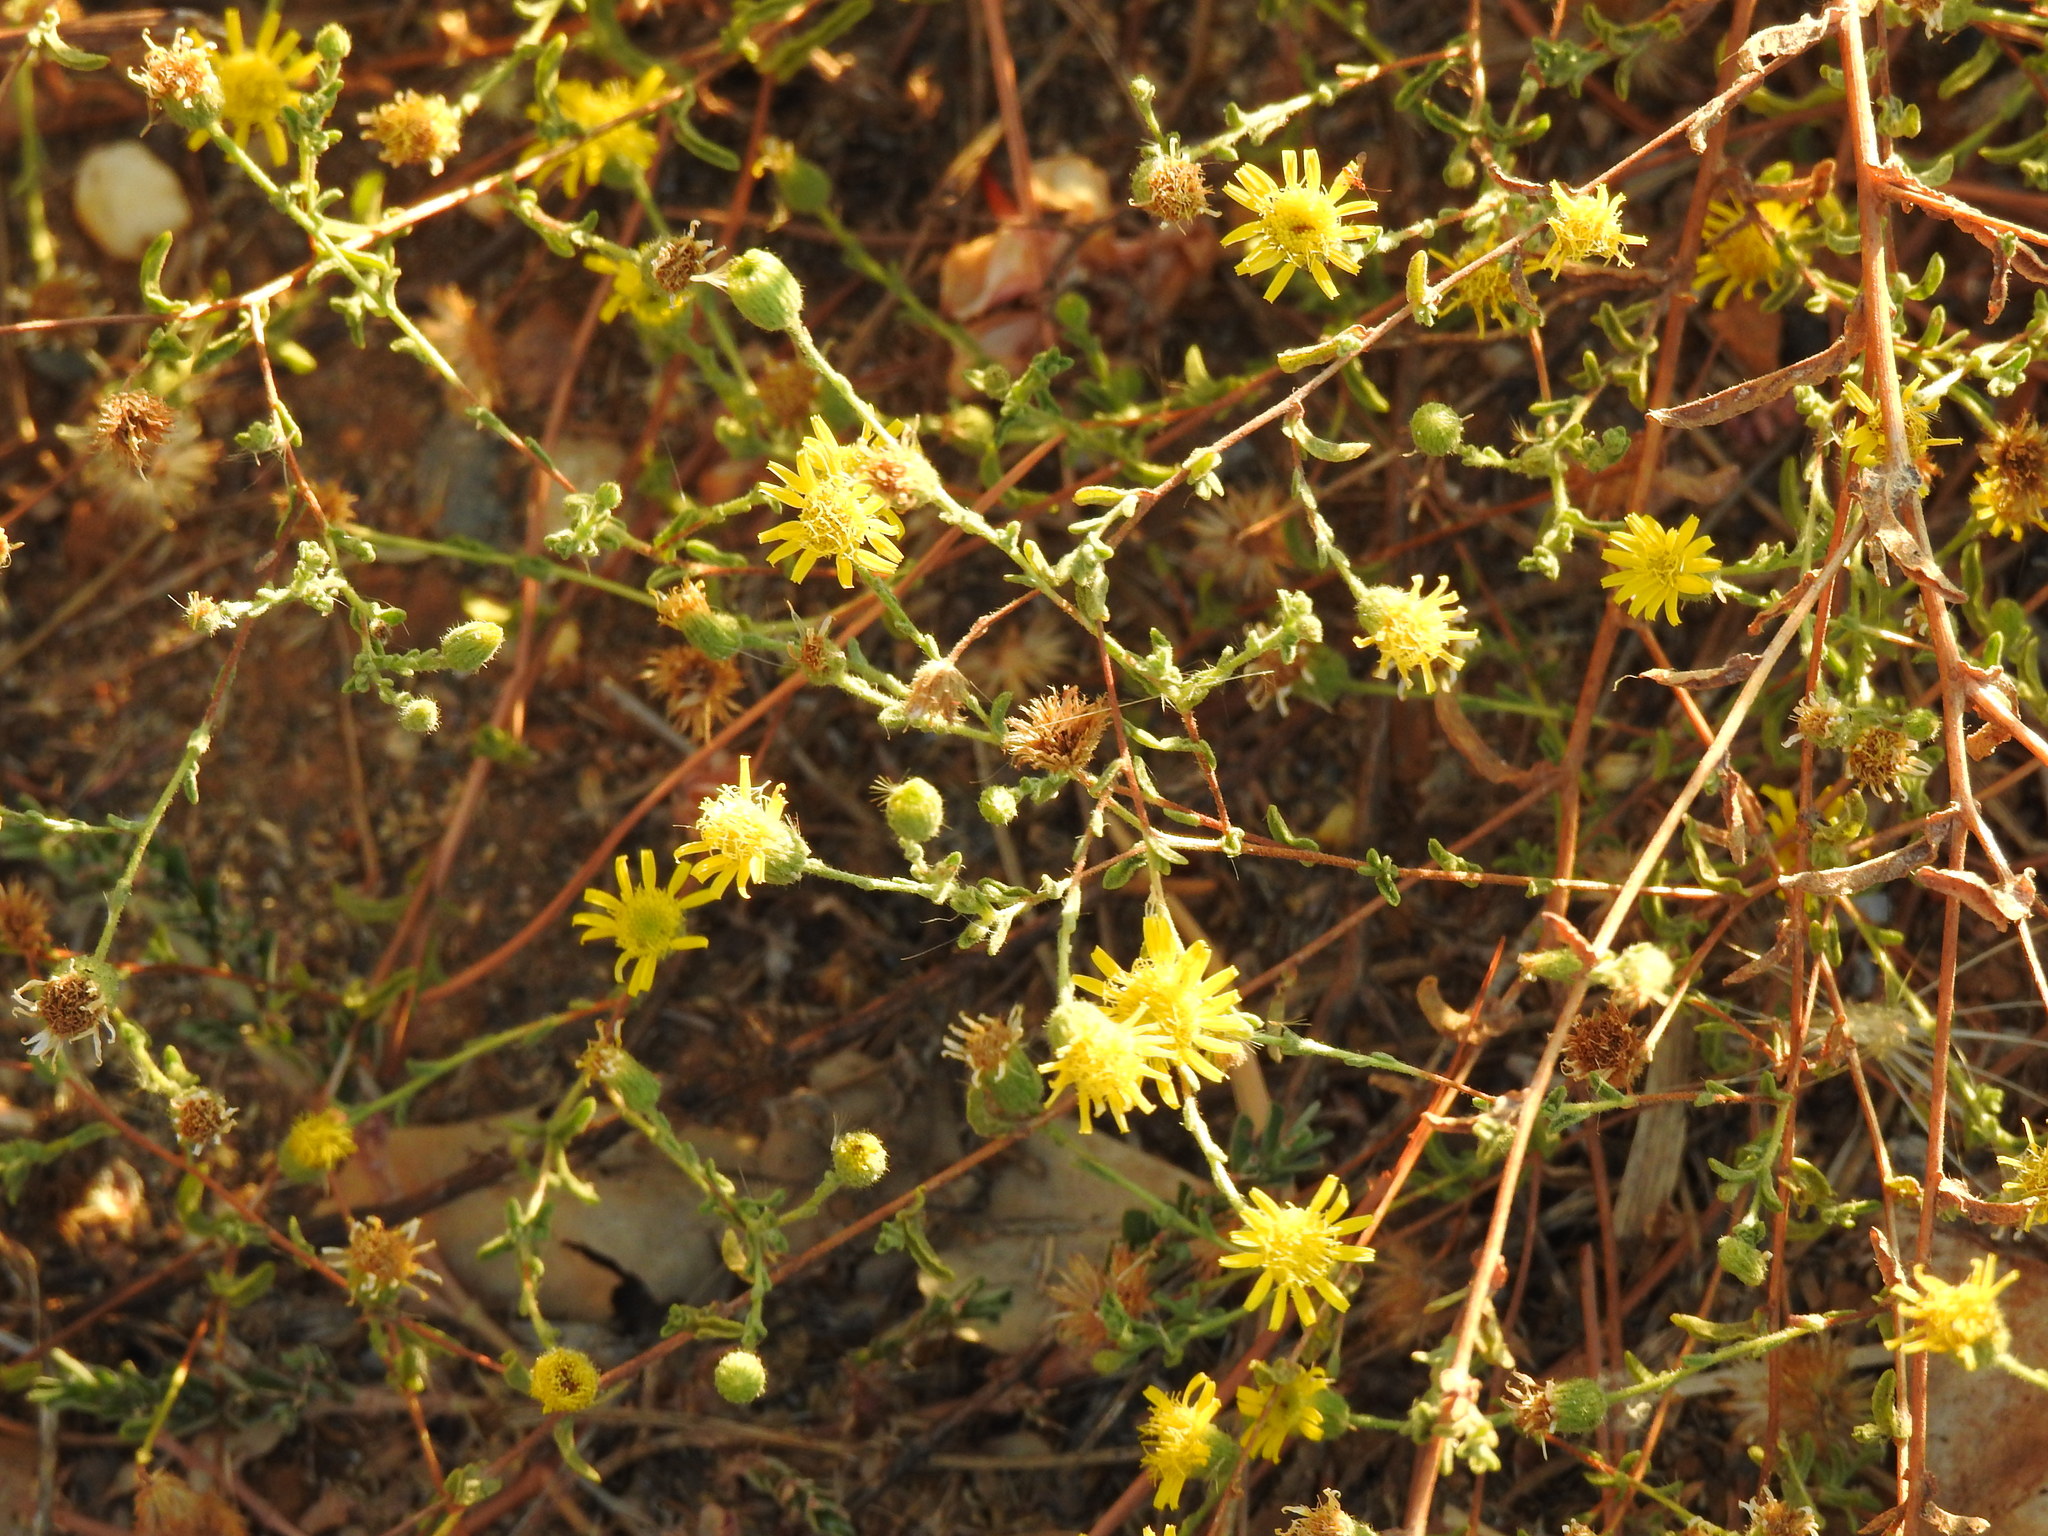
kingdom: Plantae
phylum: Tracheophyta
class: Magnoliopsida
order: Asterales
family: Asteraceae
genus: Pulicaria
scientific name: Pulicaria paludosa
